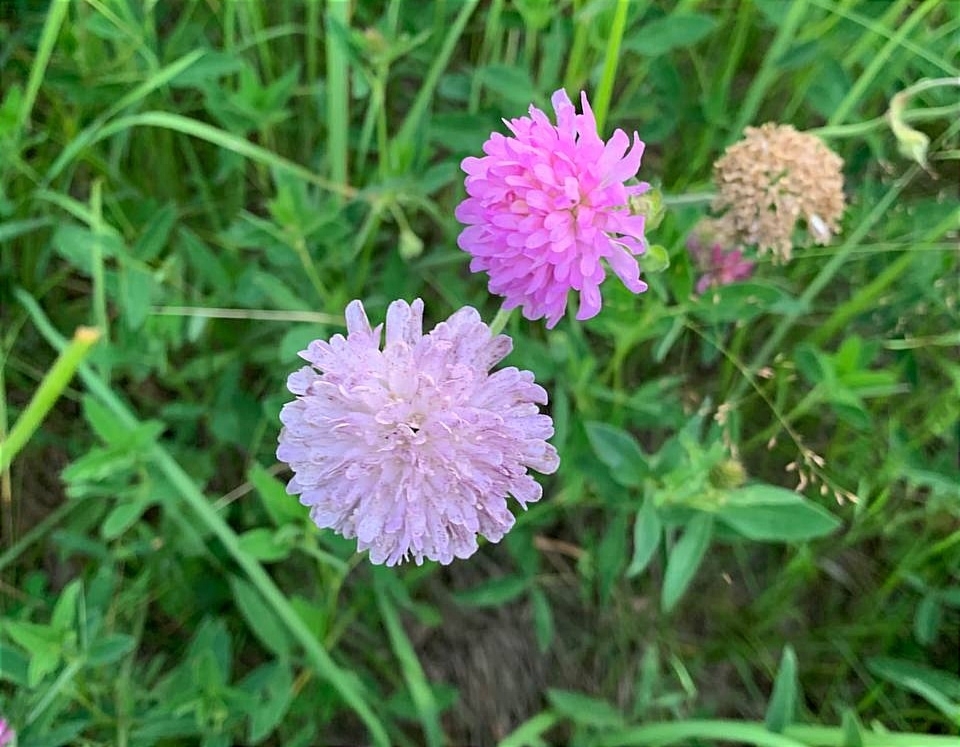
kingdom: Plantae
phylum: Tracheophyta
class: Magnoliopsida
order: Dipsacales
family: Caprifoliaceae
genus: Knautia
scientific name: Knautia arvensis
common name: Field scabiosa
